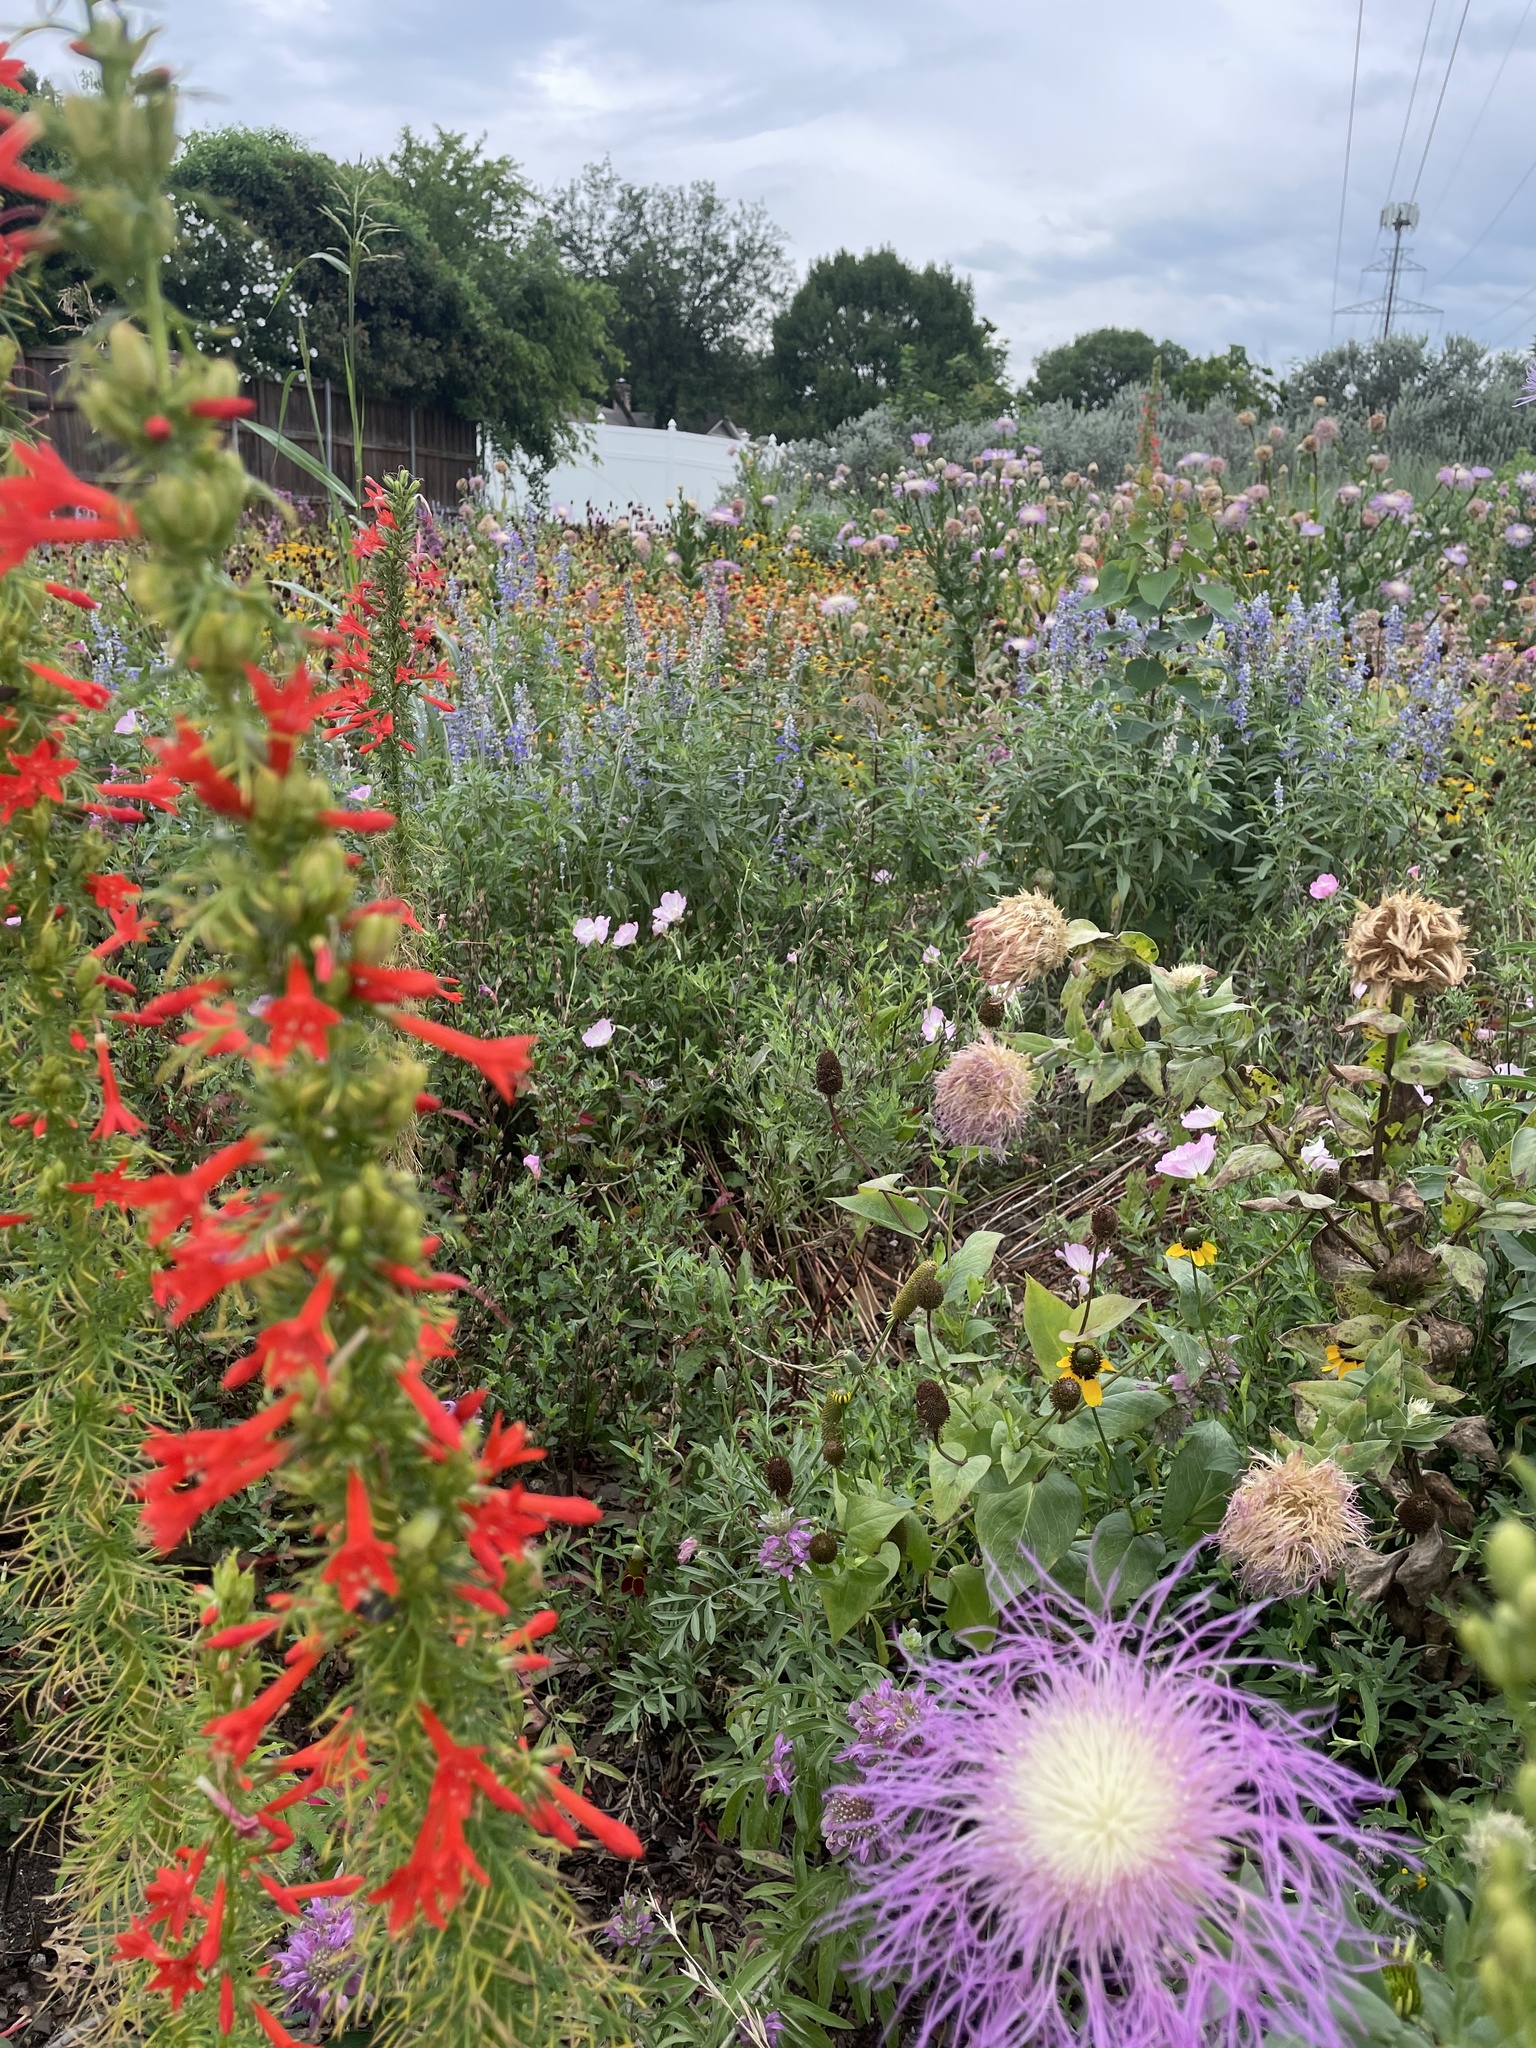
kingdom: Plantae
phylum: Tracheophyta
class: Magnoliopsida
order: Ericales
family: Polemoniaceae
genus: Ipomopsis
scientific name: Ipomopsis rubra
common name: Skyrocket
